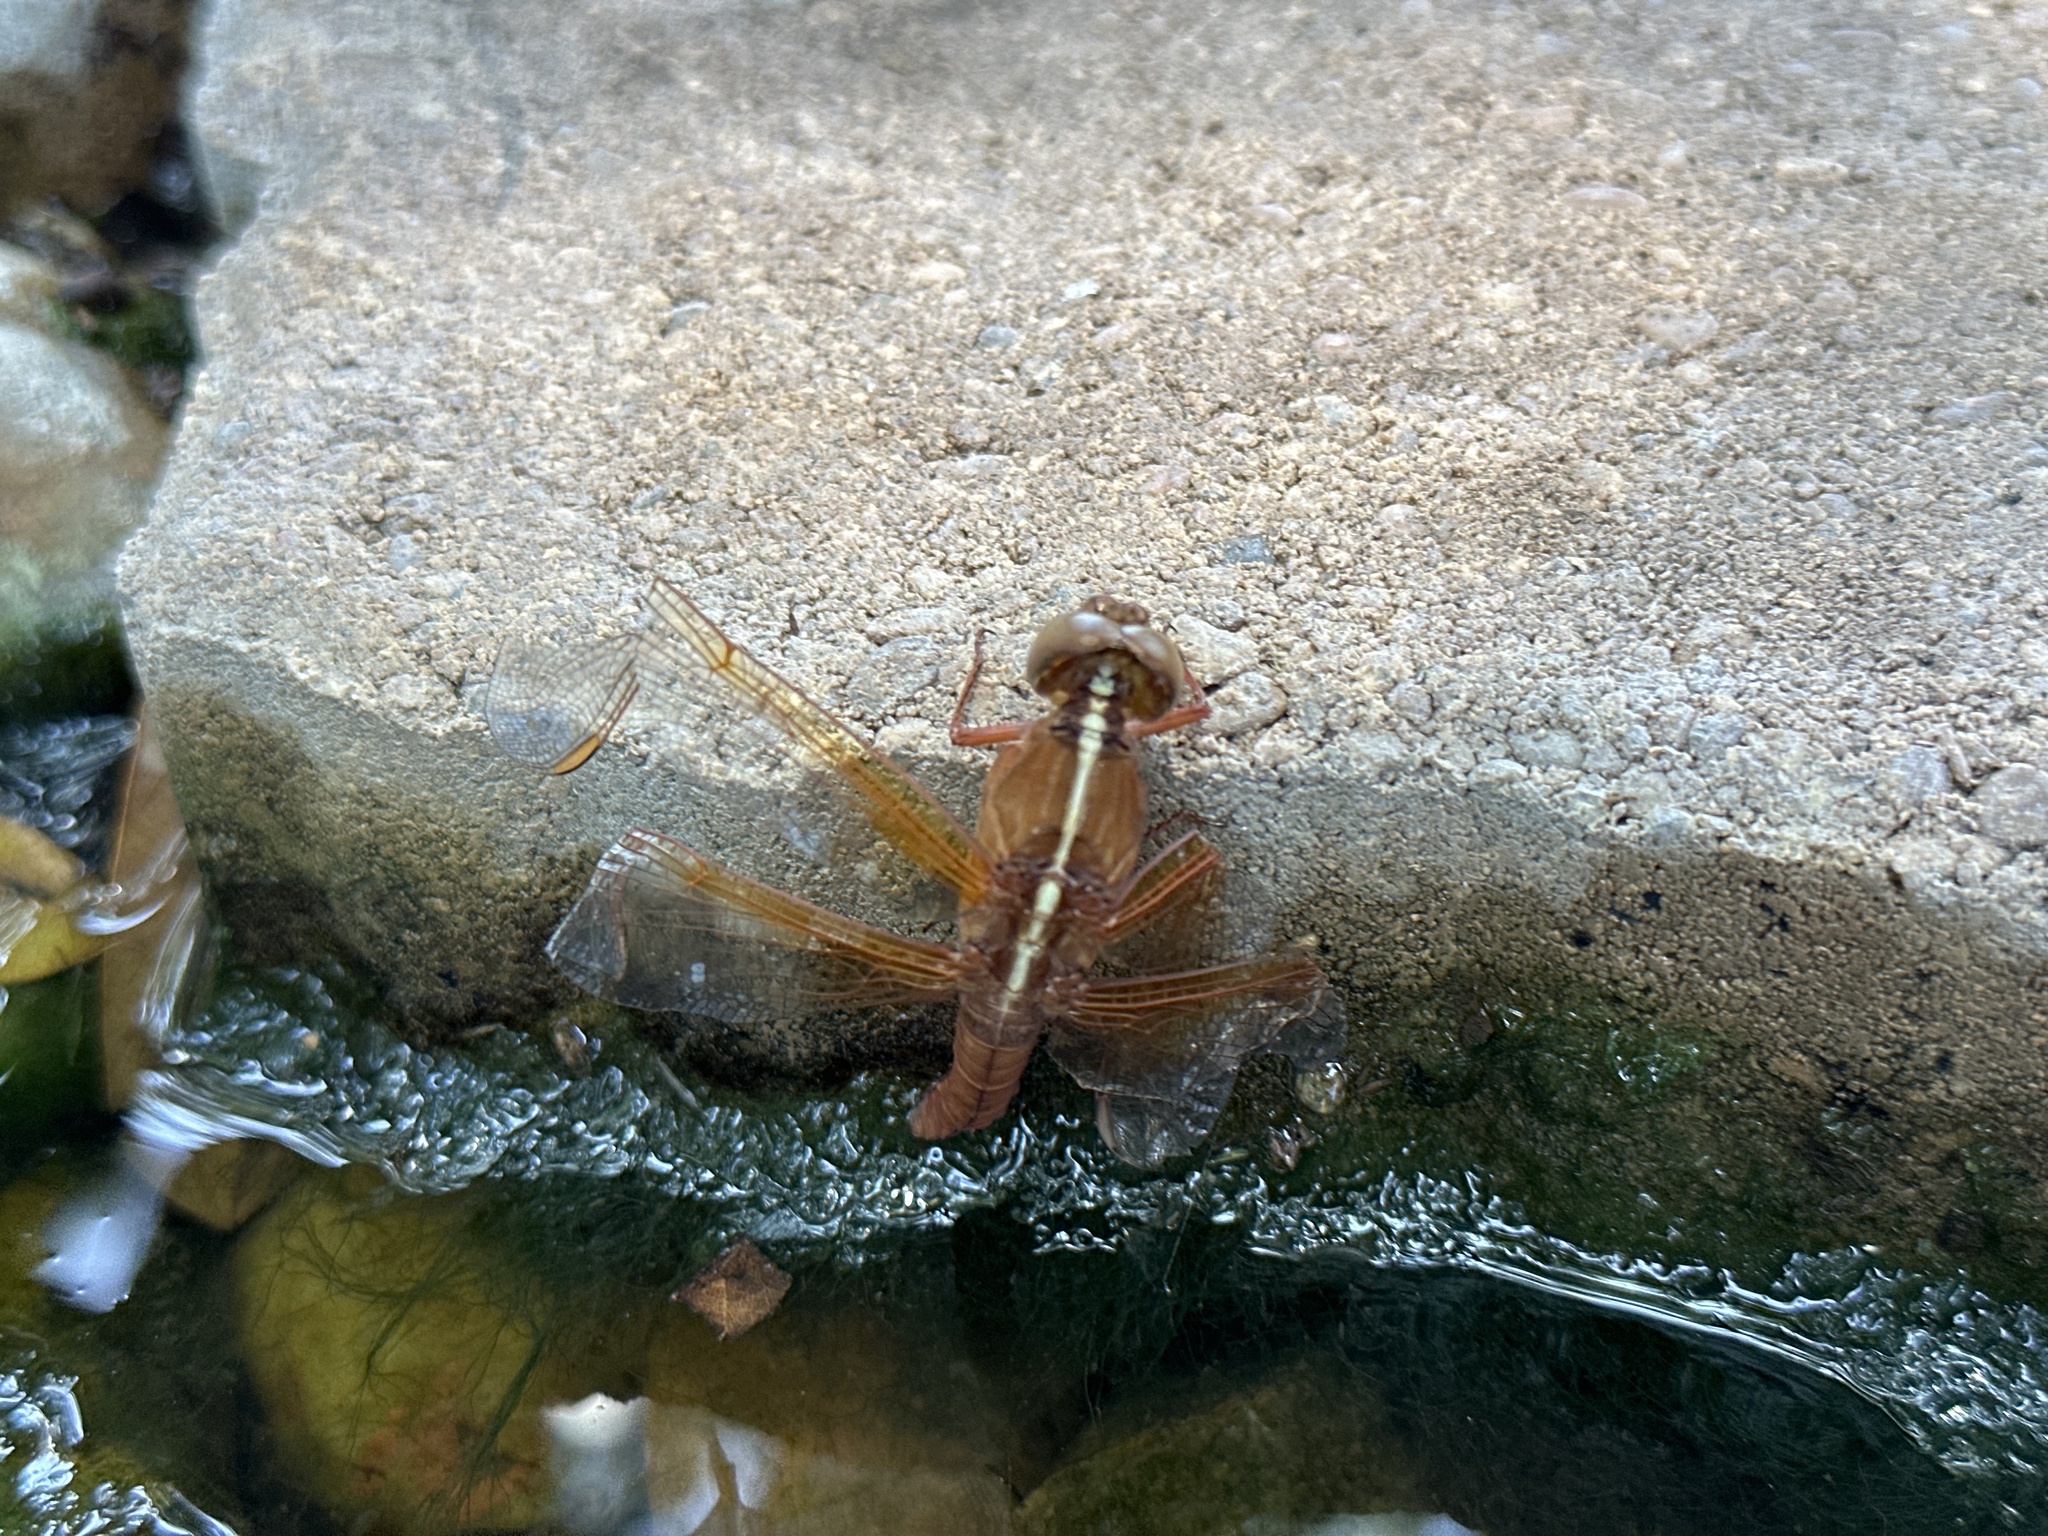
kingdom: Animalia
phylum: Arthropoda
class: Insecta
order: Odonata
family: Libellulidae
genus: Libellula
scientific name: Libellula croceipennis
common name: Neon skimmer
